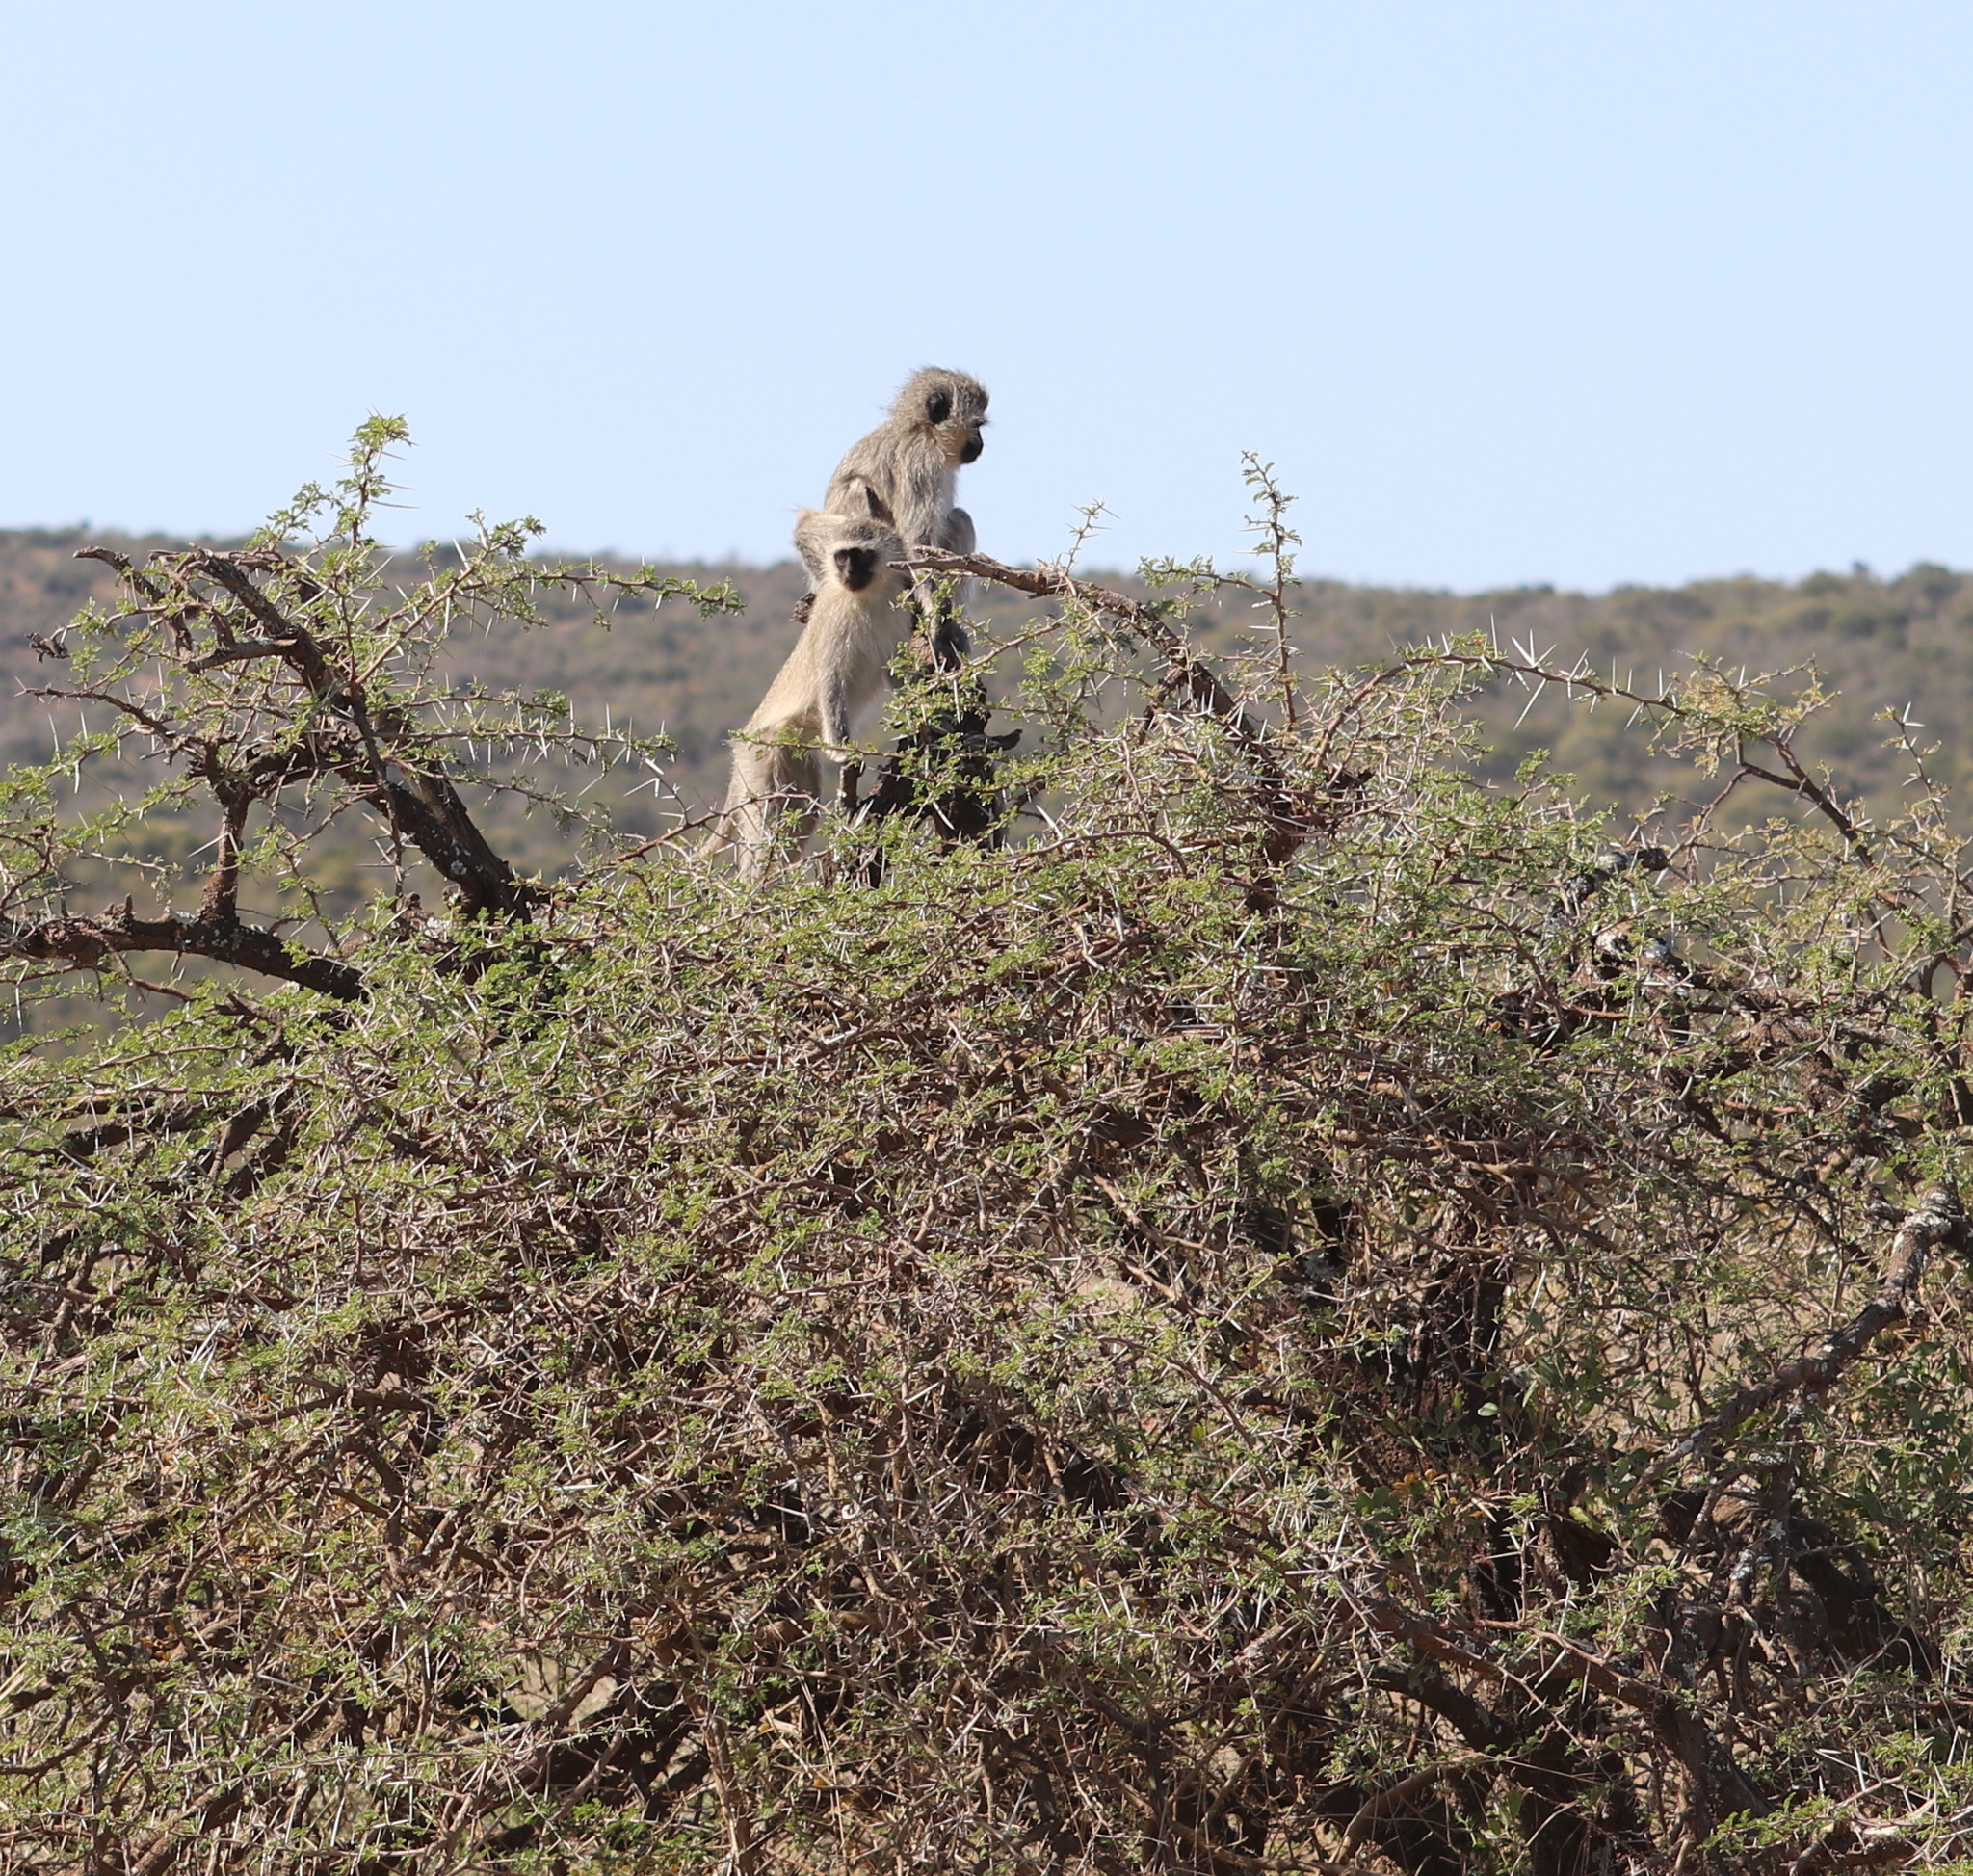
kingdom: Animalia
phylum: Chordata
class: Mammalia
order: Primates
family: Cercopithecidae
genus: Chlorocebus
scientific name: Chlorocebus pygerythrus
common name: Vervet monkey
